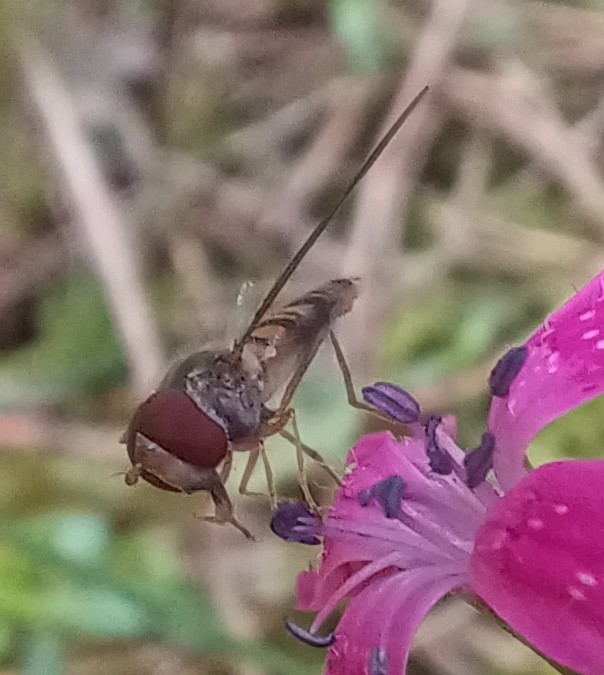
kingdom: Animalia
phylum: Arthropoda
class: Insecta
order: Diptera
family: Syrphidae
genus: Episyrphus
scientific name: Episyrphus balteatus
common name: Marmalade hoverfly
